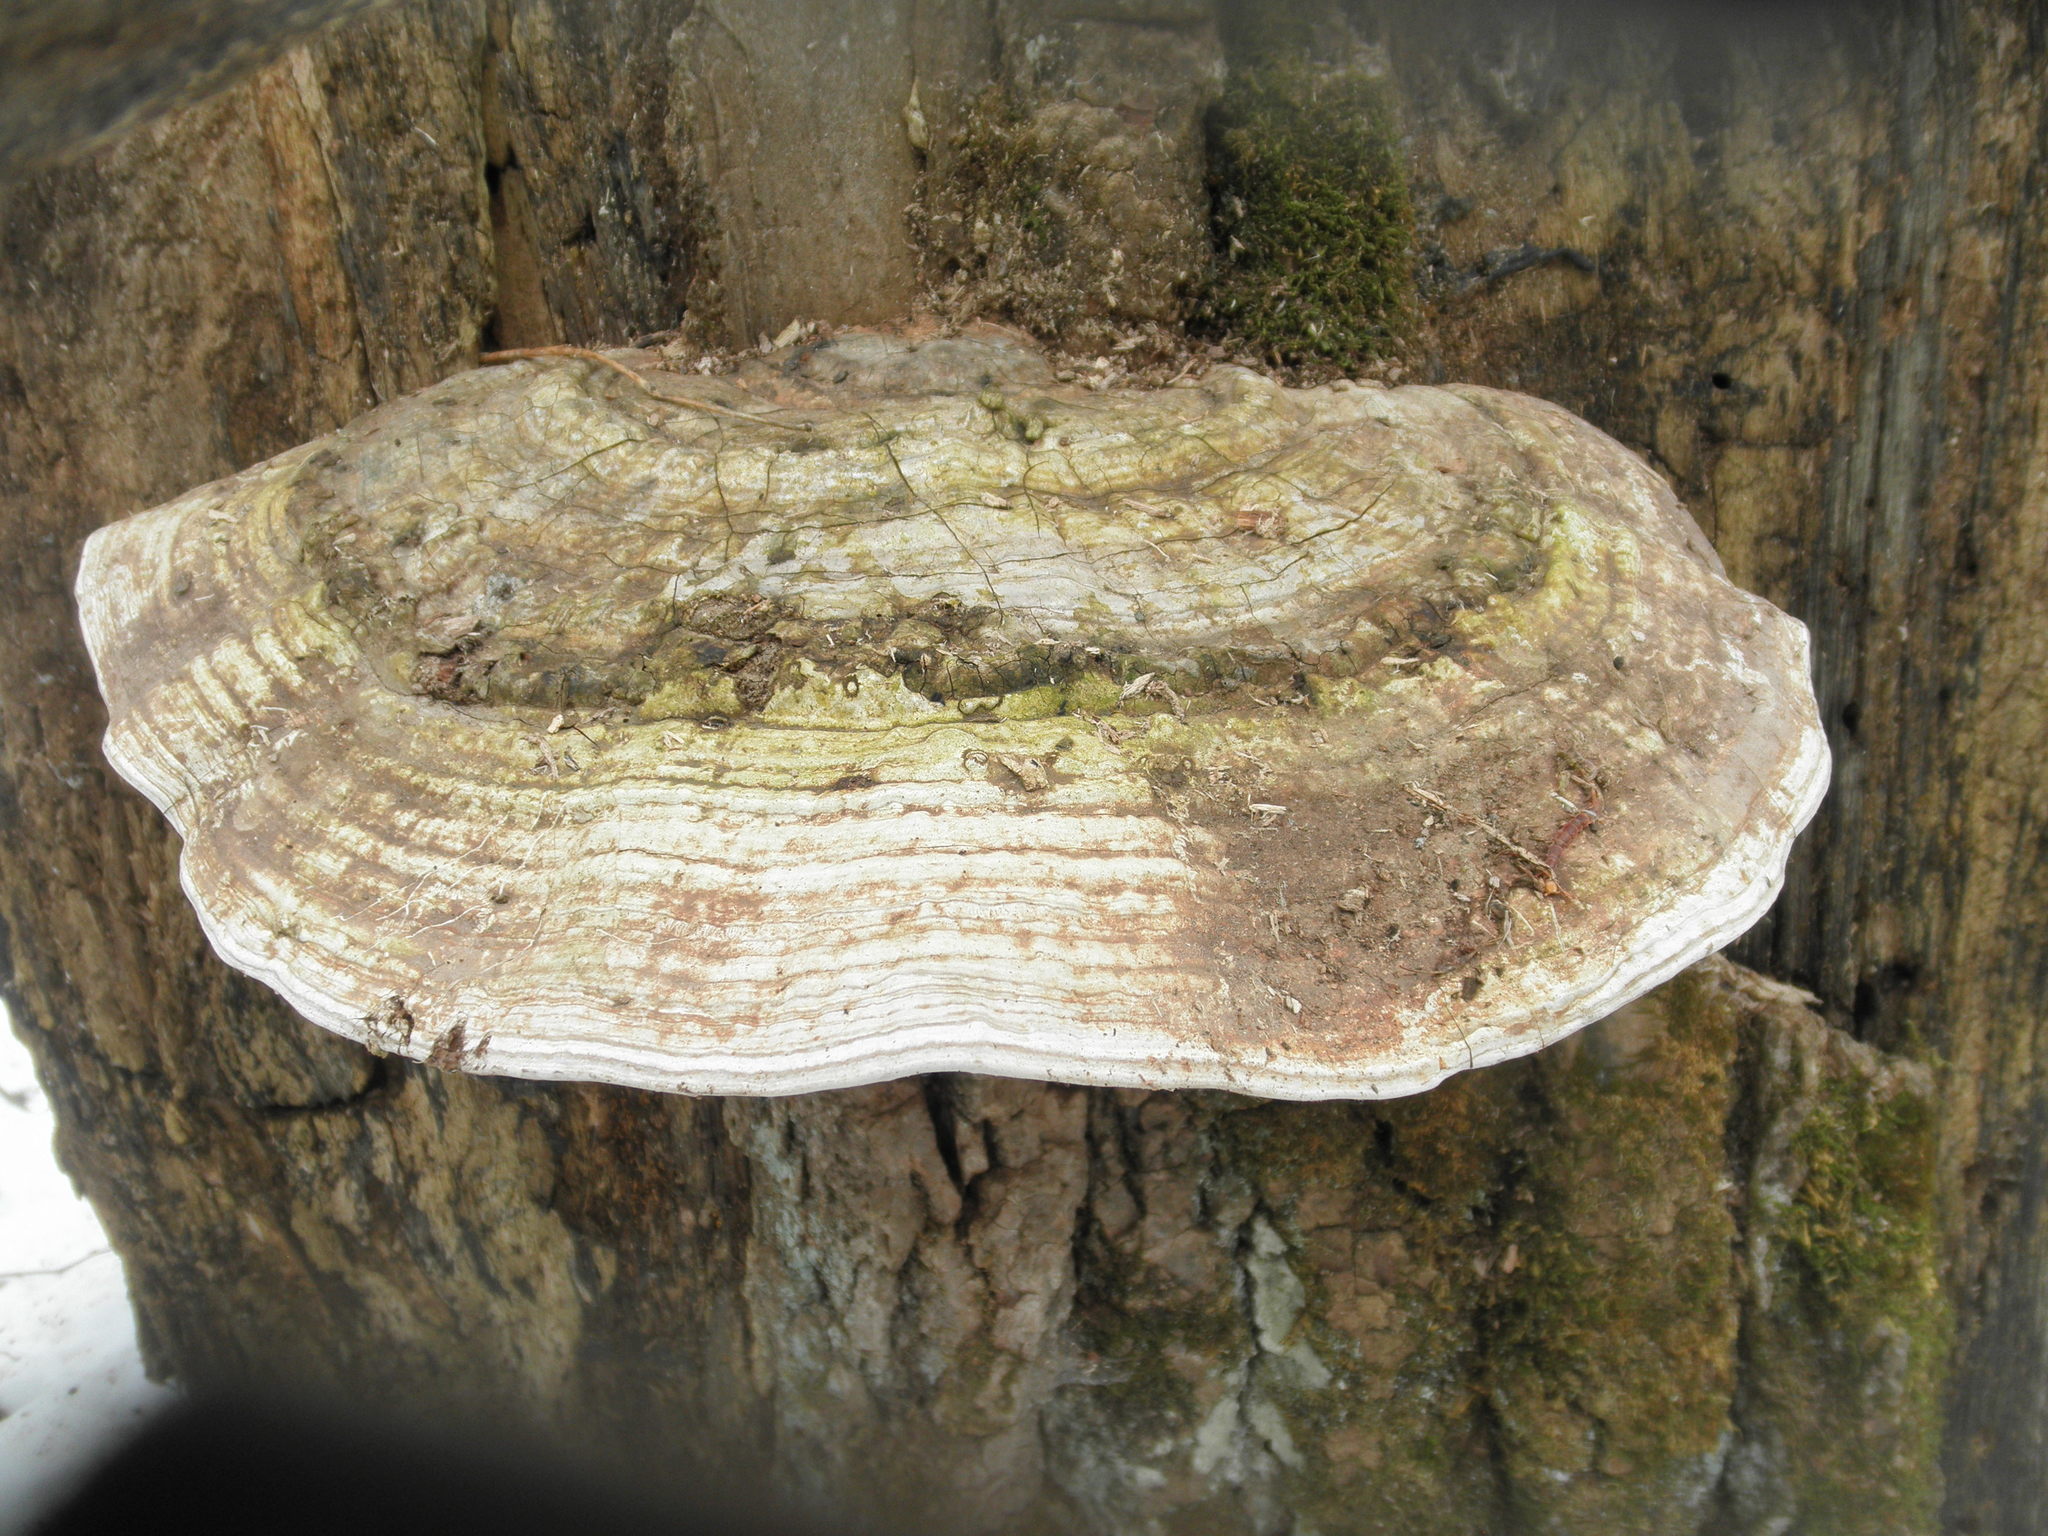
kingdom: Fungi
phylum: Basidiomycota
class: Agaricomycetes
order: Polyporales
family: Polyporaceae
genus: Ganoderma
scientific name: Ganoderma applanatum
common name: Artist's bracket
